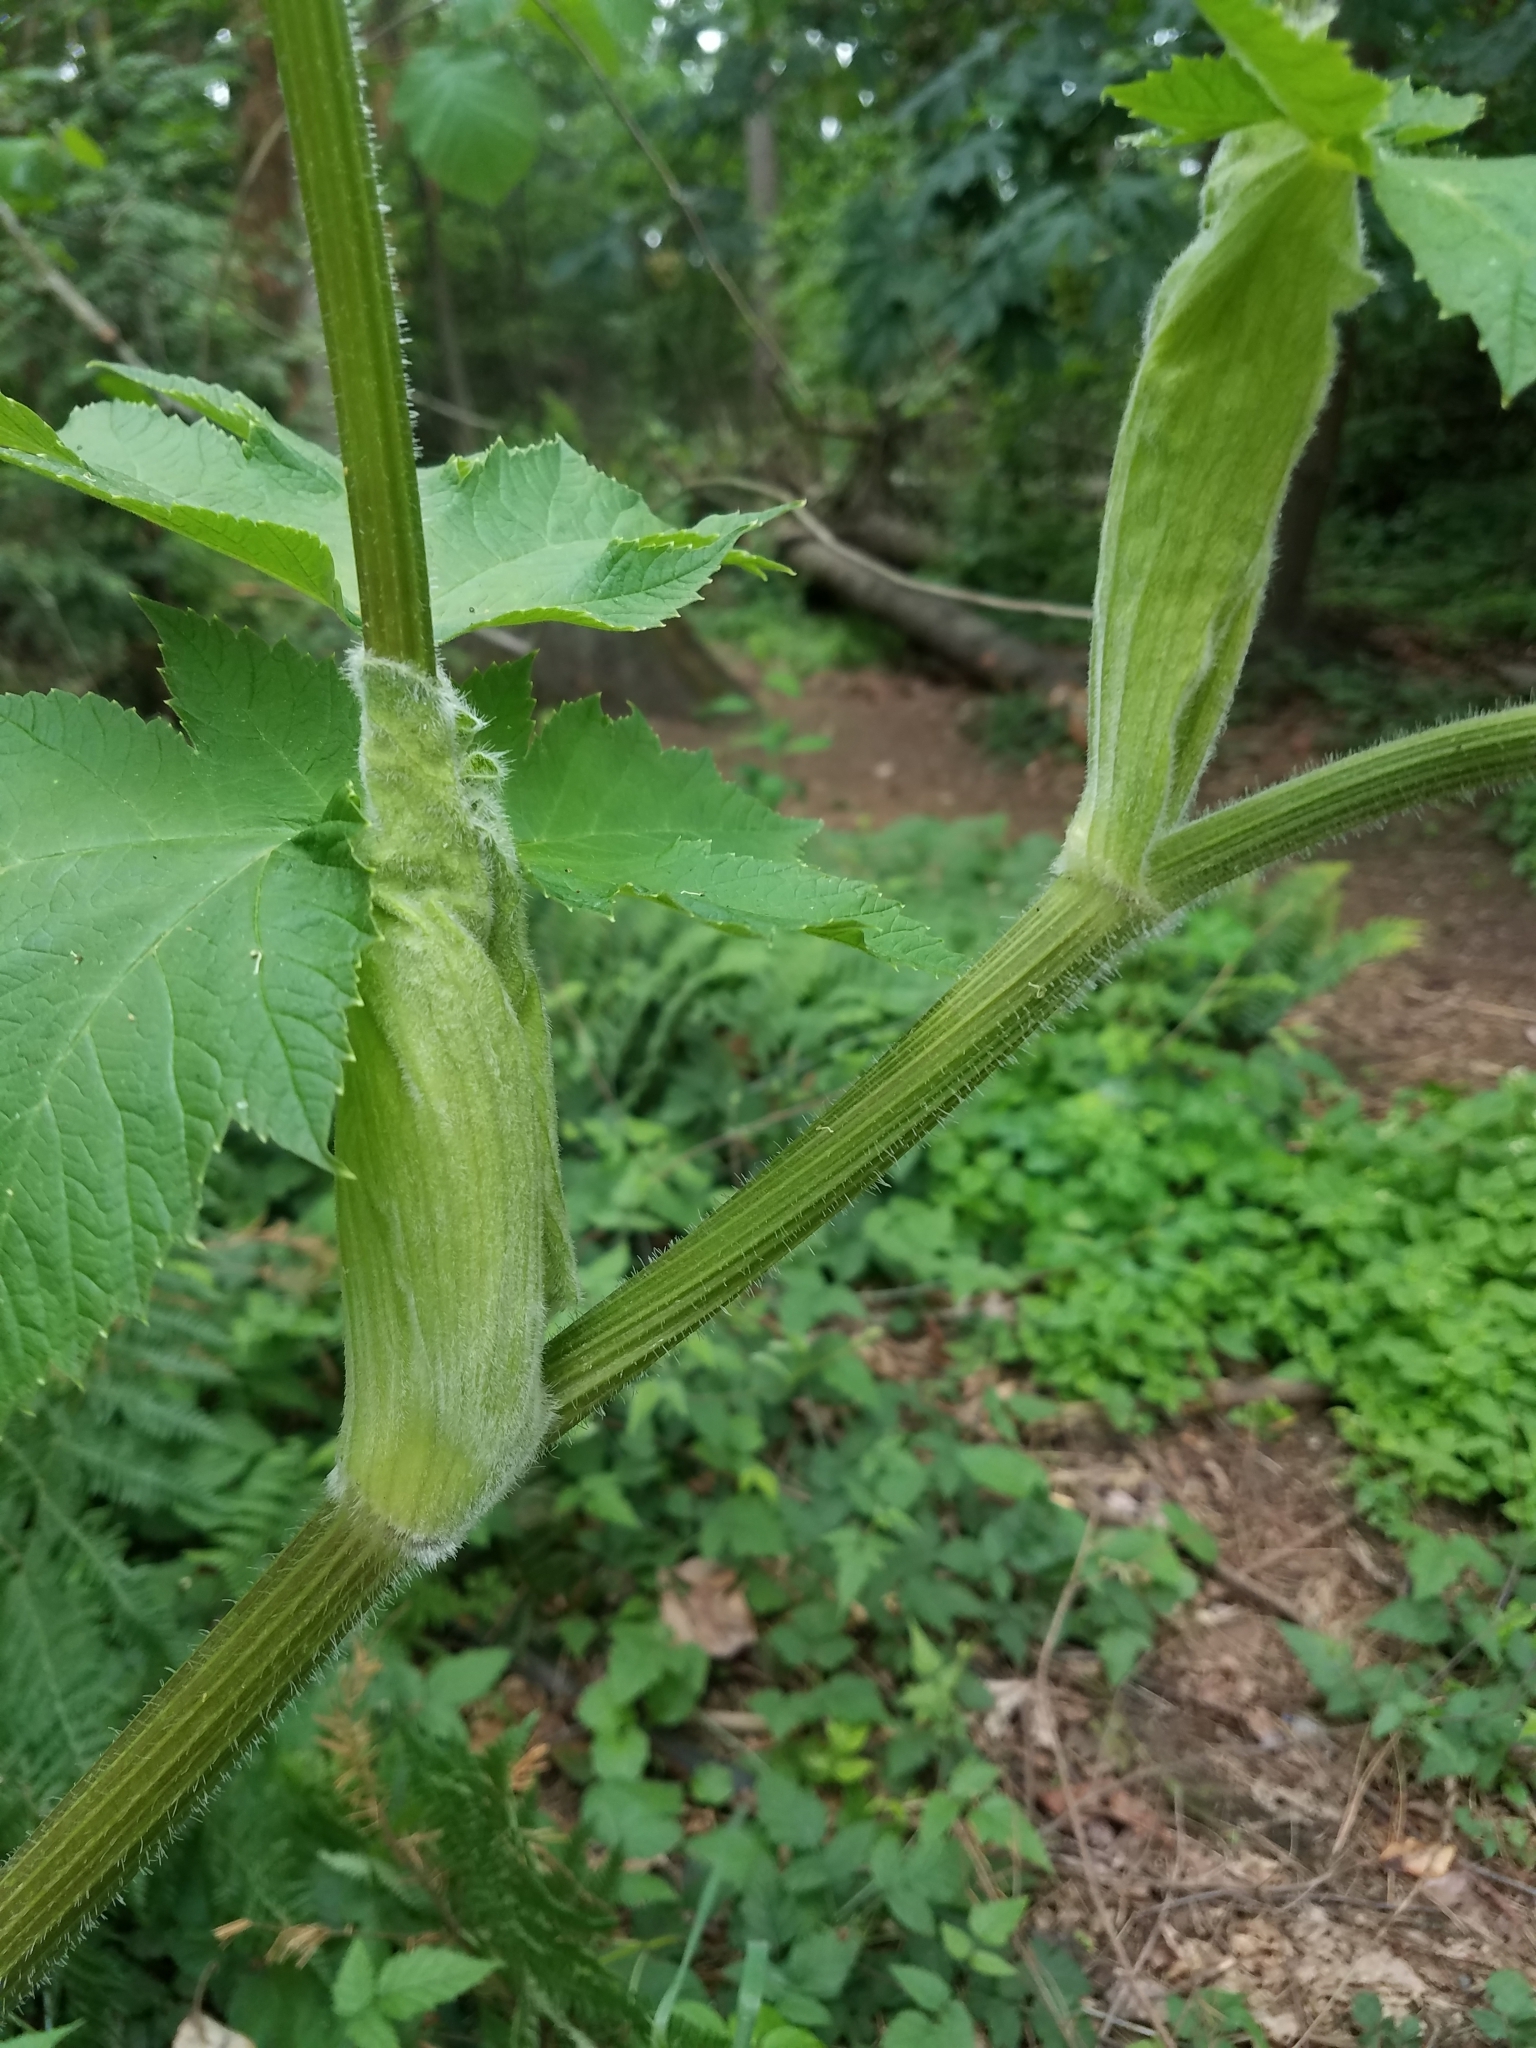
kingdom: Plantae
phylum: Tracheophyta
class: Magnoliopsida
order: Apiales
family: Apiaceae
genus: Heracleum
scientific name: Heracleum maximum
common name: American cow parsnip
